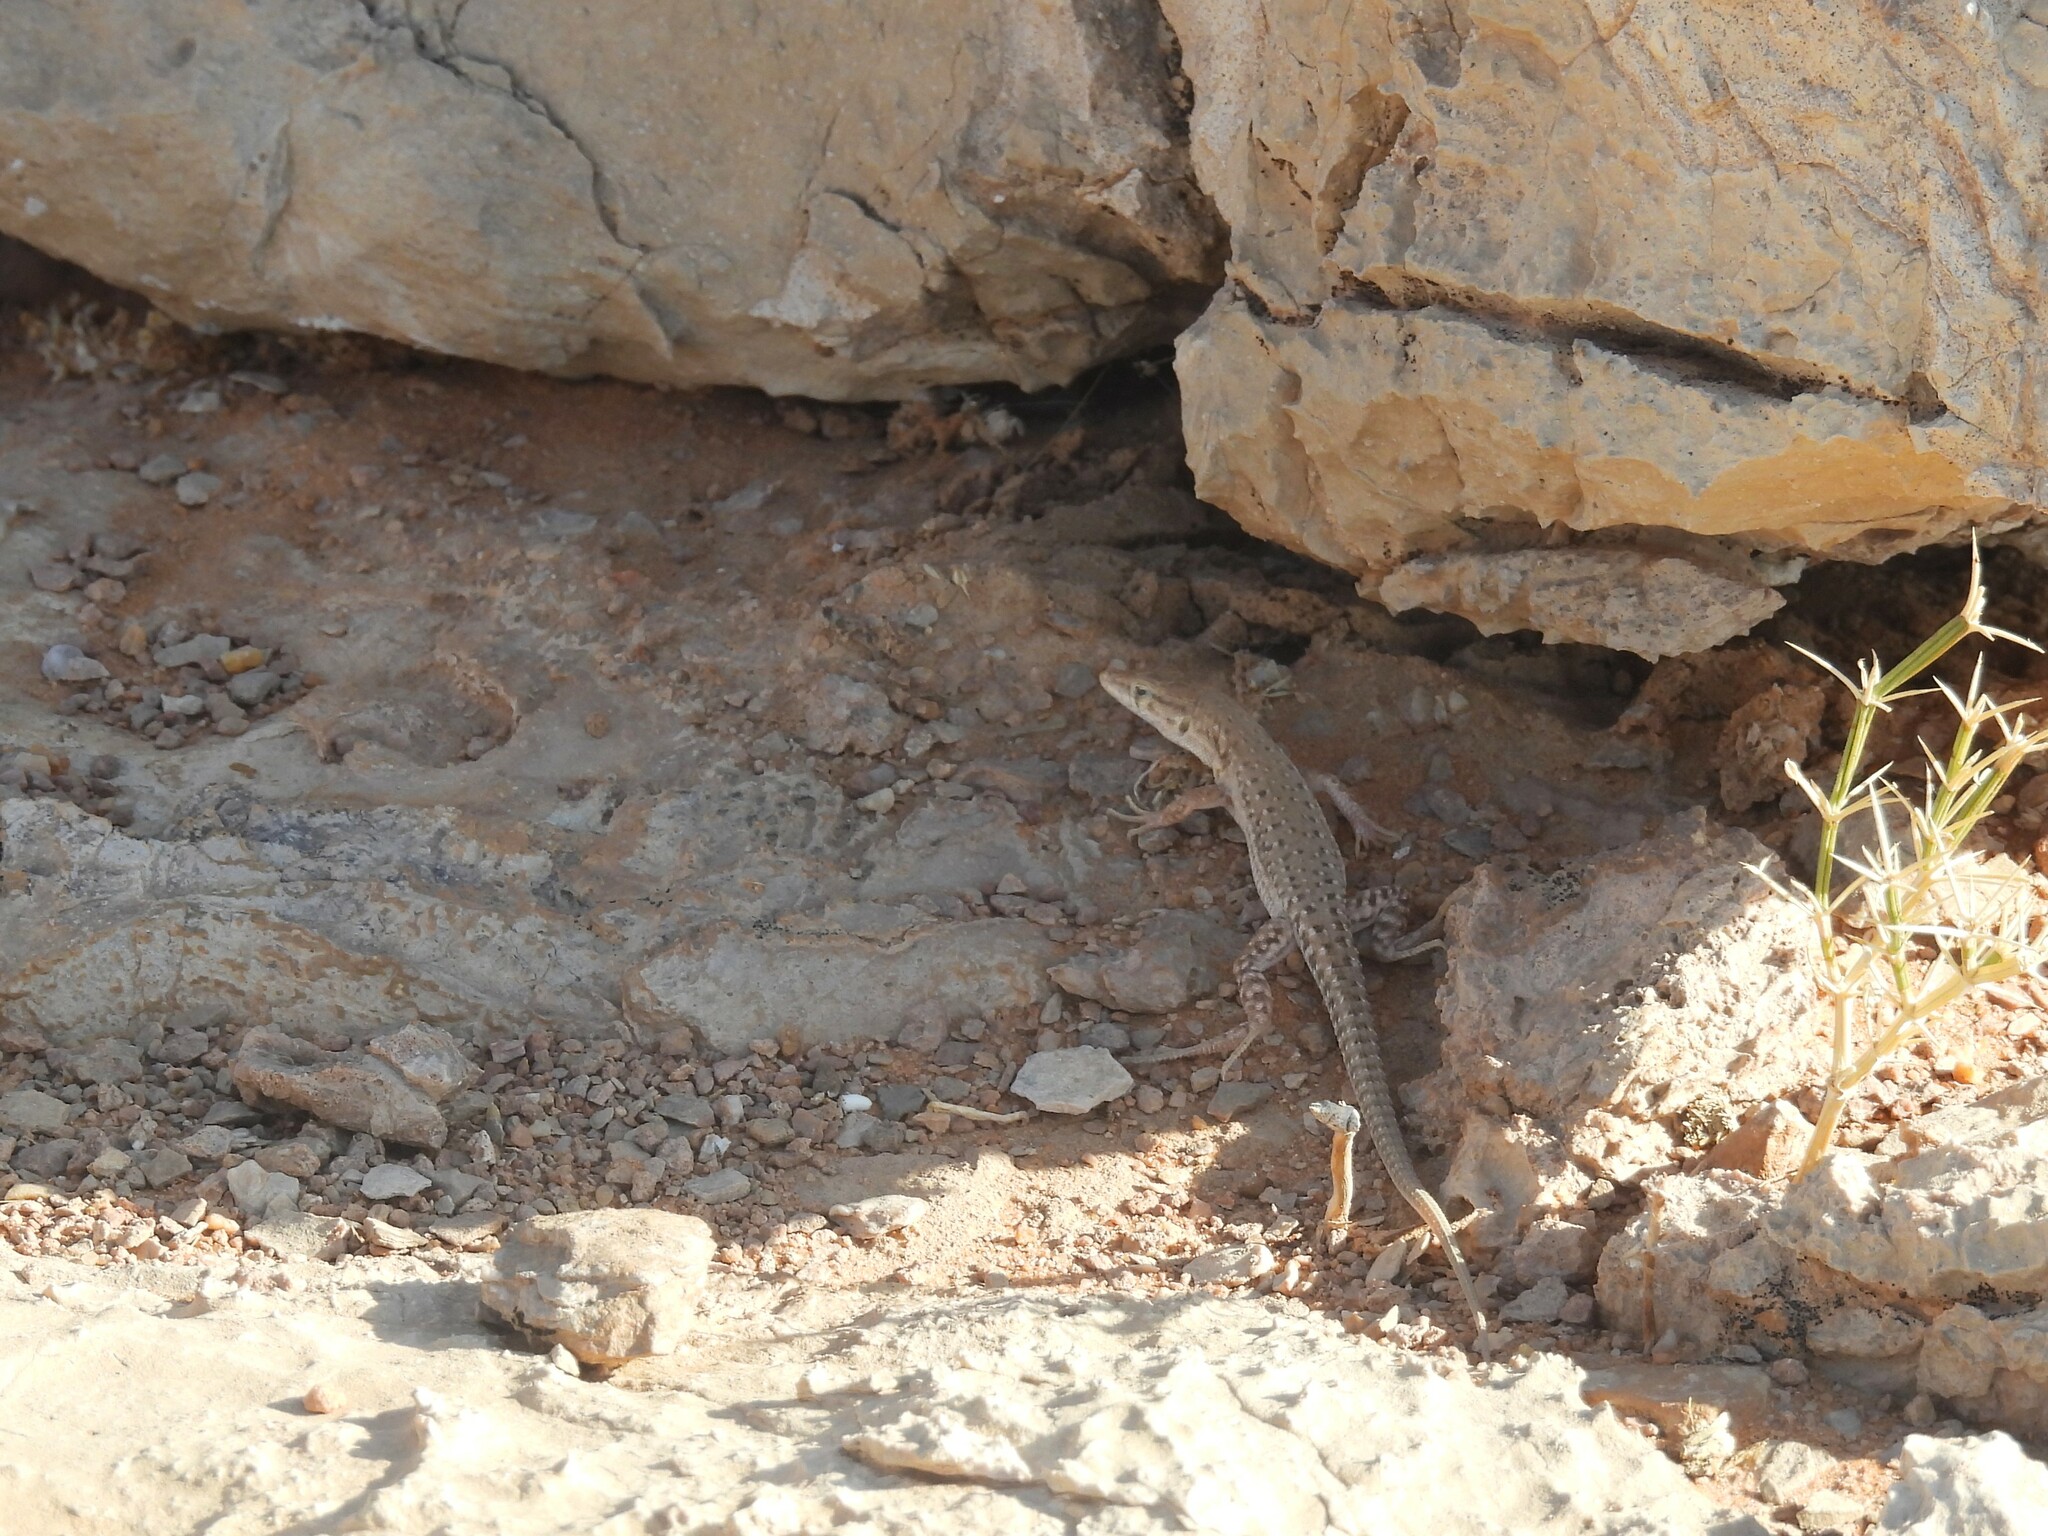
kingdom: Animalia
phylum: Chordata
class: Squamata
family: Lacertidae
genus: Mesalina
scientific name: Mesalina guttulata
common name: Desert lacerta
